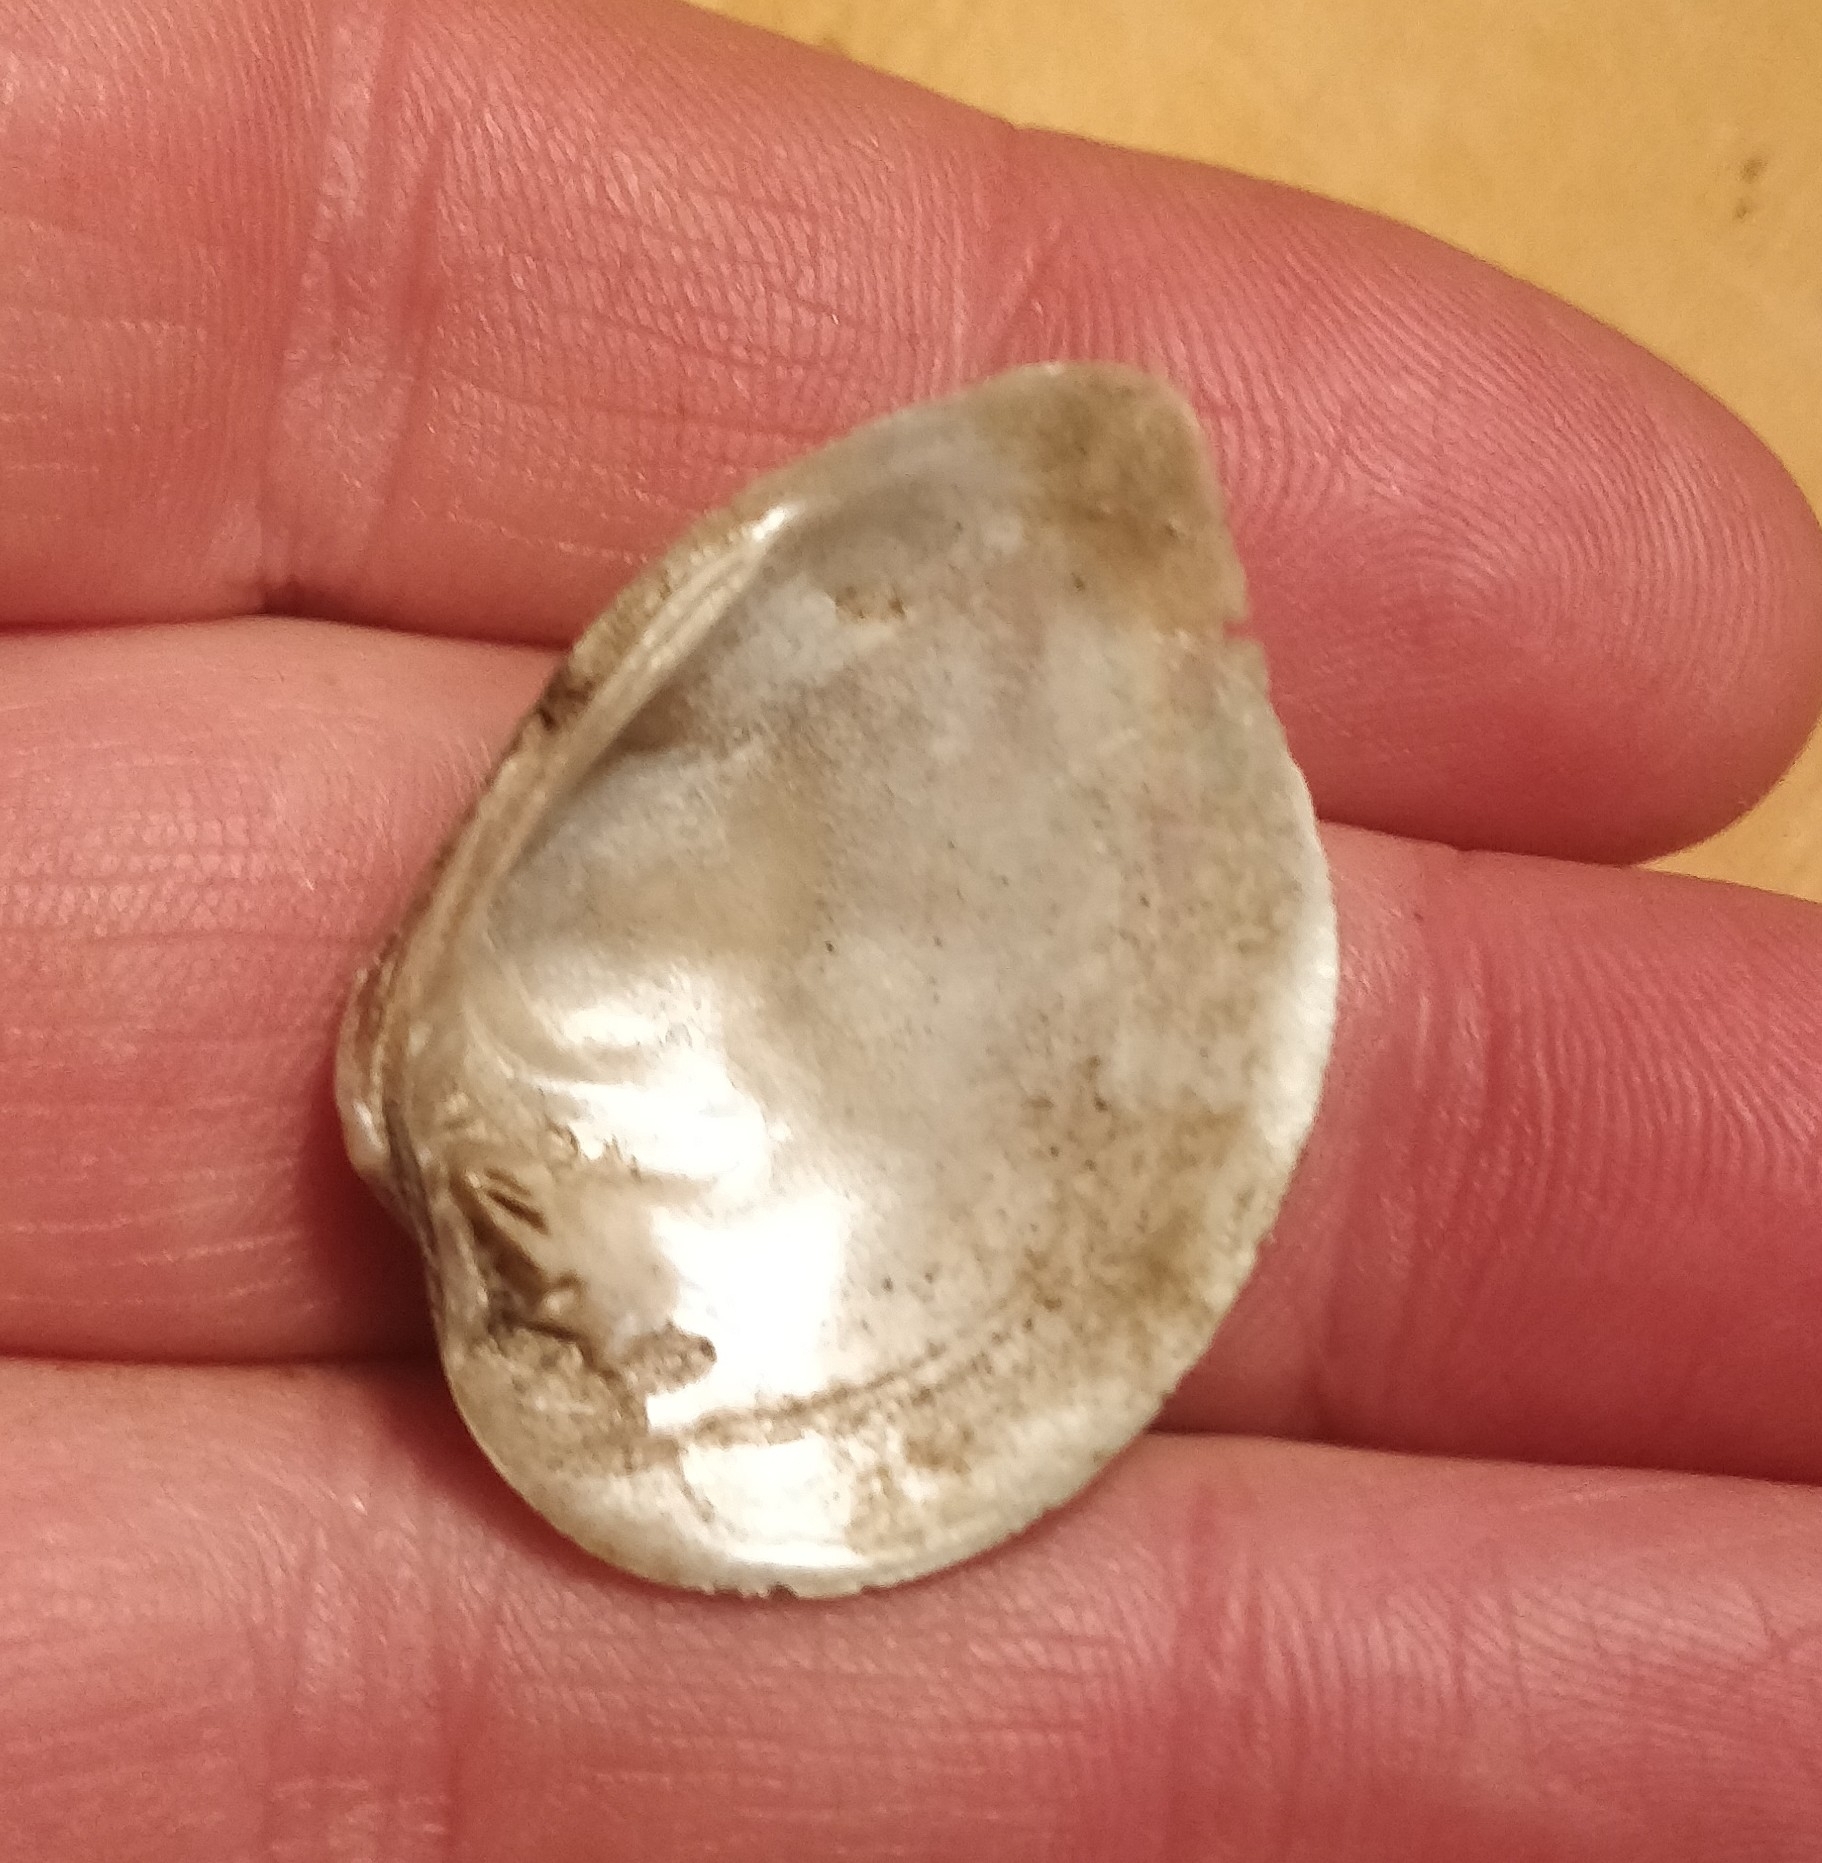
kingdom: Animalia
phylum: Mollusca
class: Bivalvia
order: Unionida
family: Unionidae
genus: Truncilla
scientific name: Truncilla truncata
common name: Deertoe
